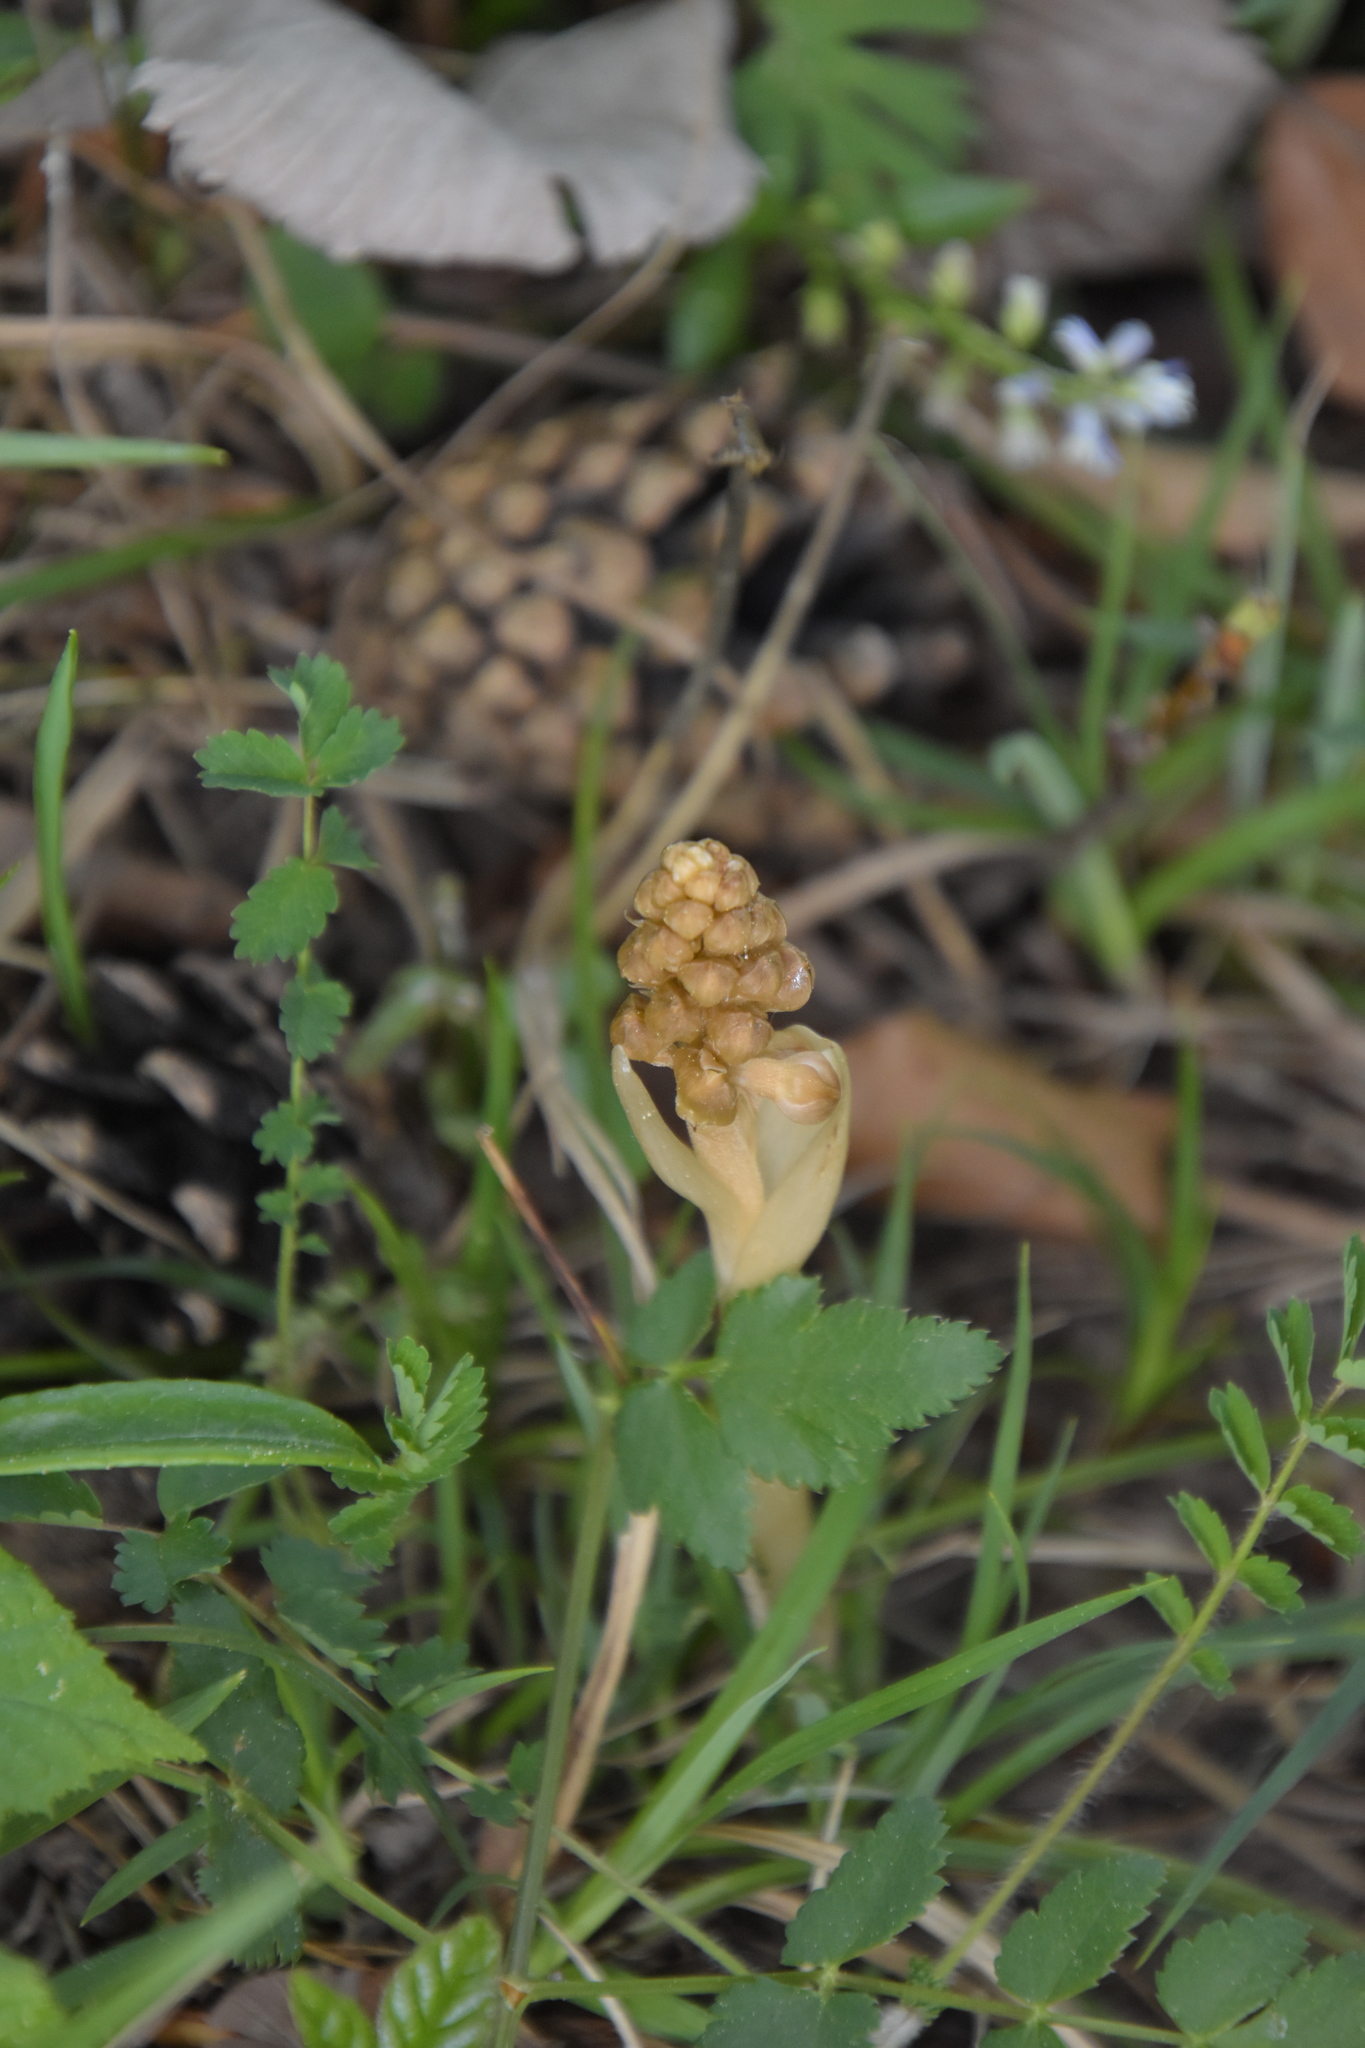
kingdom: Plantae
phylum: Tracheophyta
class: Liliopsida
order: Asparagales
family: Orchidaceae
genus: Neottia
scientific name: Neottia nidus-avis
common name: Bird's-nest orchid
